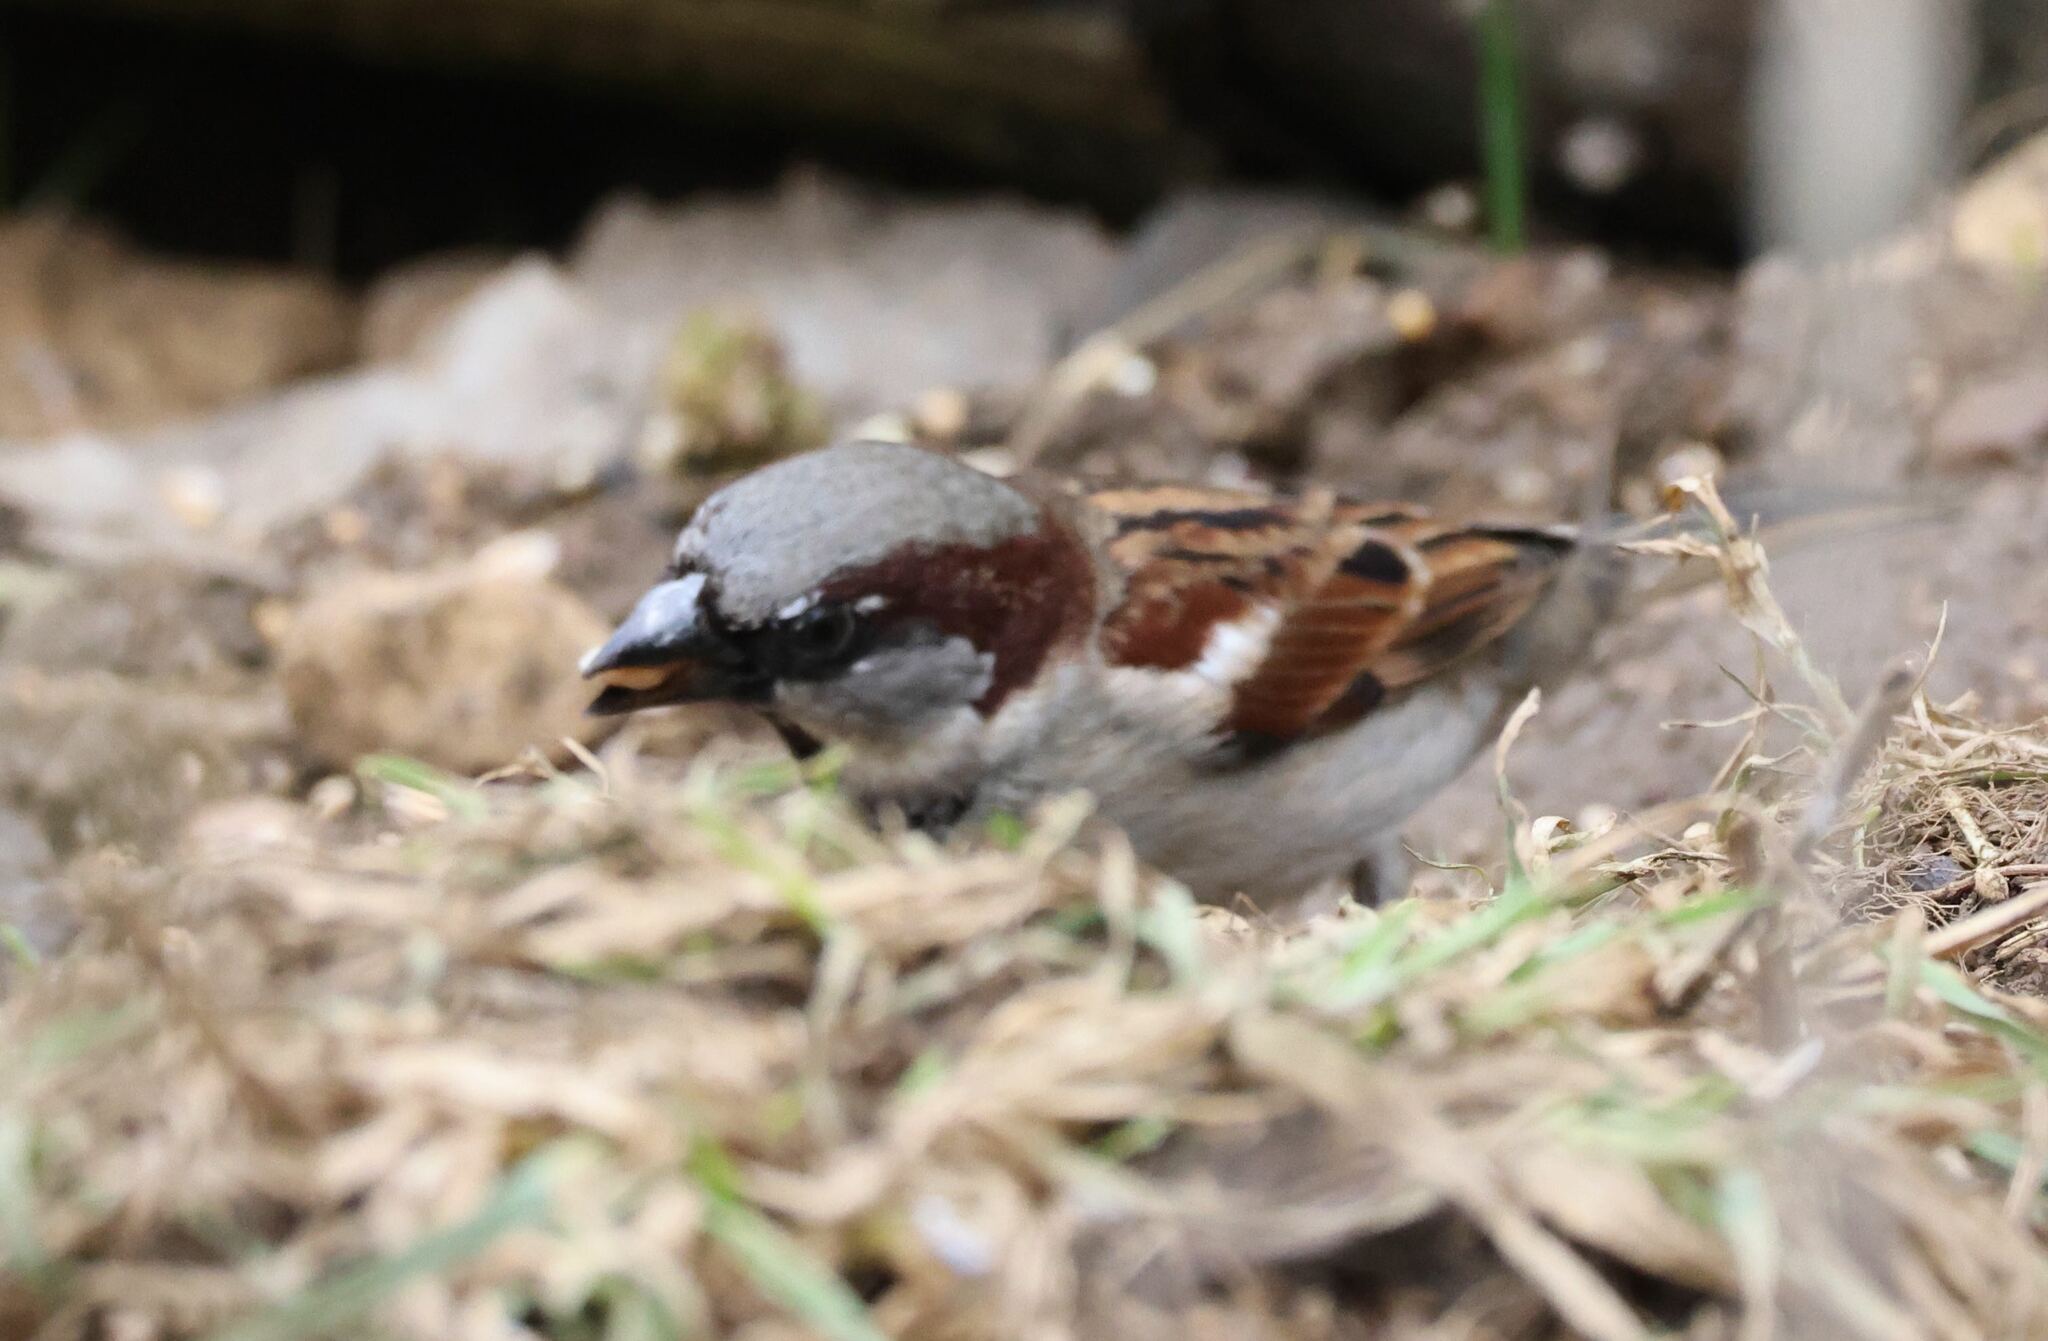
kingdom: Animalia
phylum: Chordata
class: Aves
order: Passeriformes
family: Passeridae
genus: Passer
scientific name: Passer domesticus
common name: House sparrow
